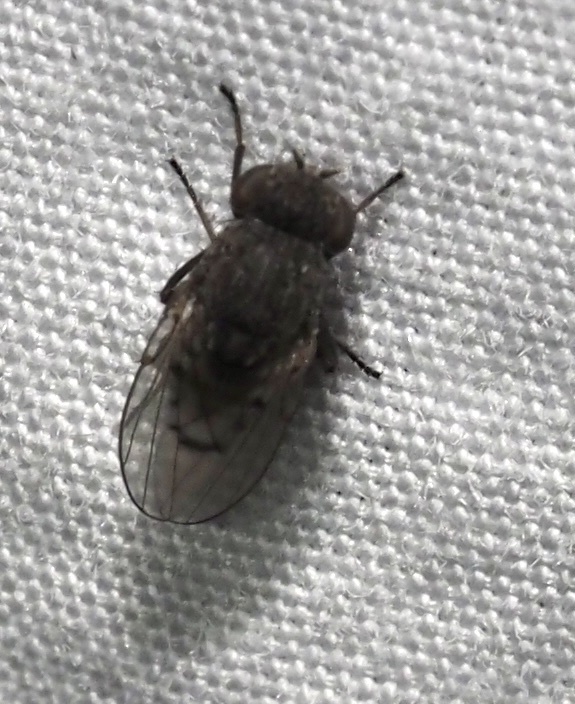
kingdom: Animalia
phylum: Arthropoda
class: Insecta
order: Diptera
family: Ephydridae
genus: Paralimna
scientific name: Paralimna punctipennis
